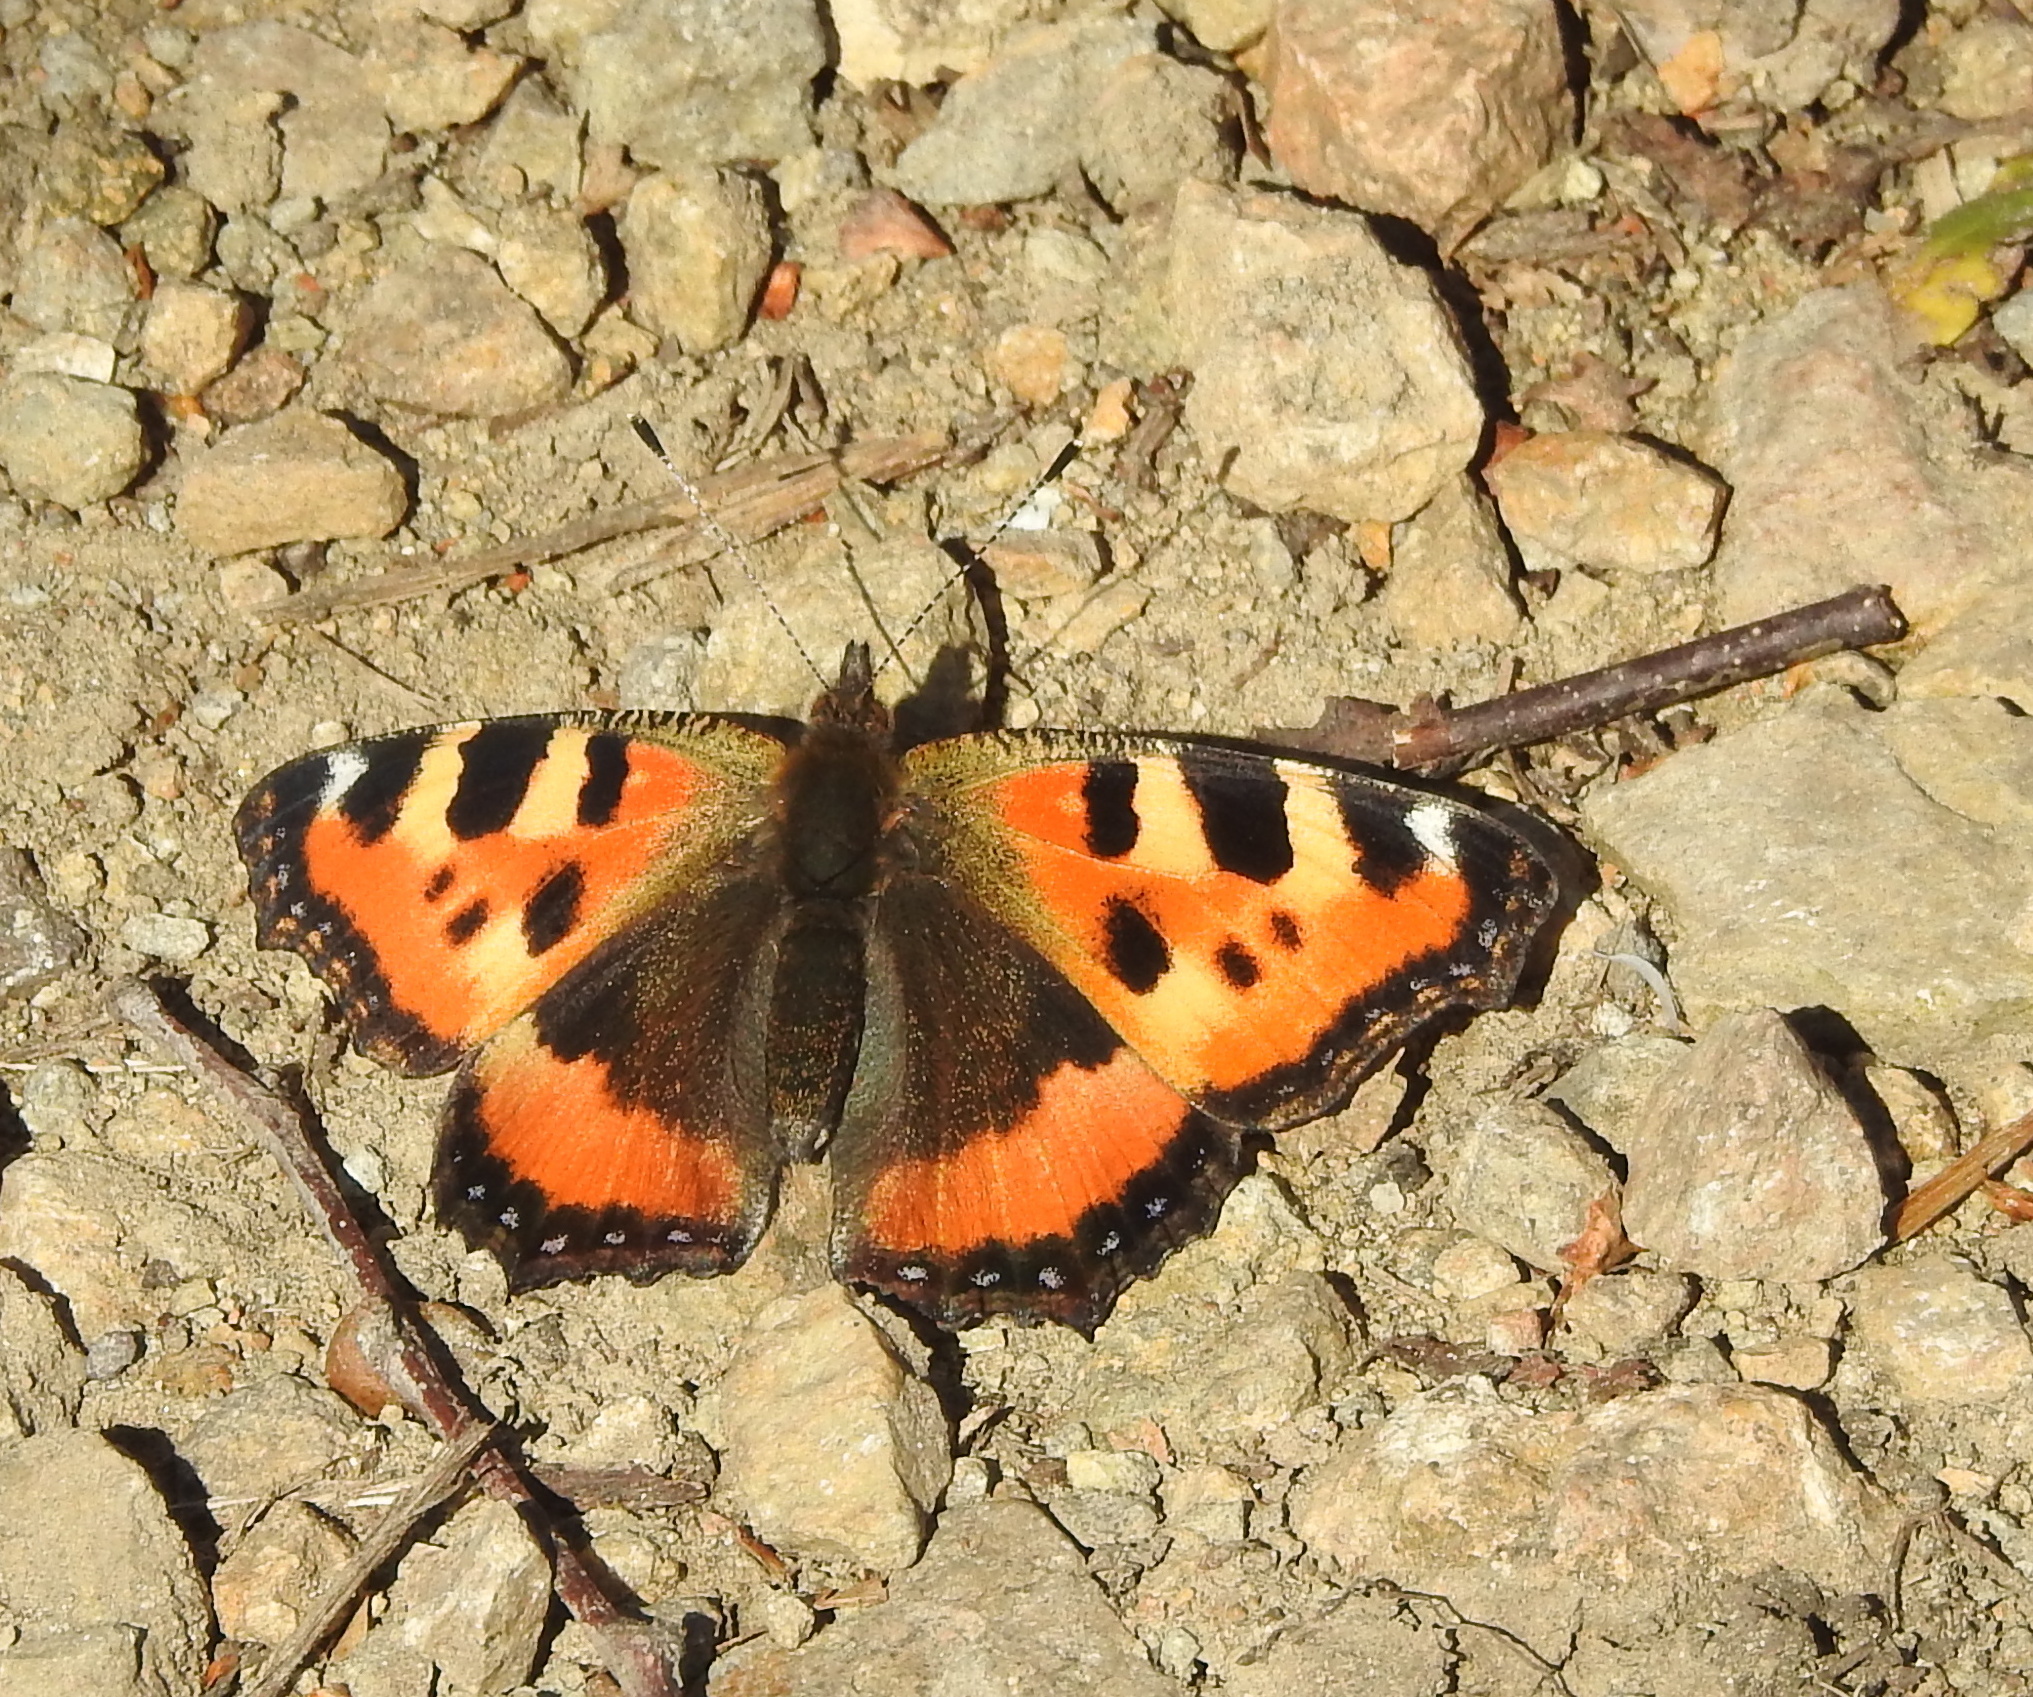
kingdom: Animalia
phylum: Arthropoda
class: Insecta
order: Lepidoptera
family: Nymphalidae
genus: Aglais
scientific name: Aglais urticae
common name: Small tortoiseshell
